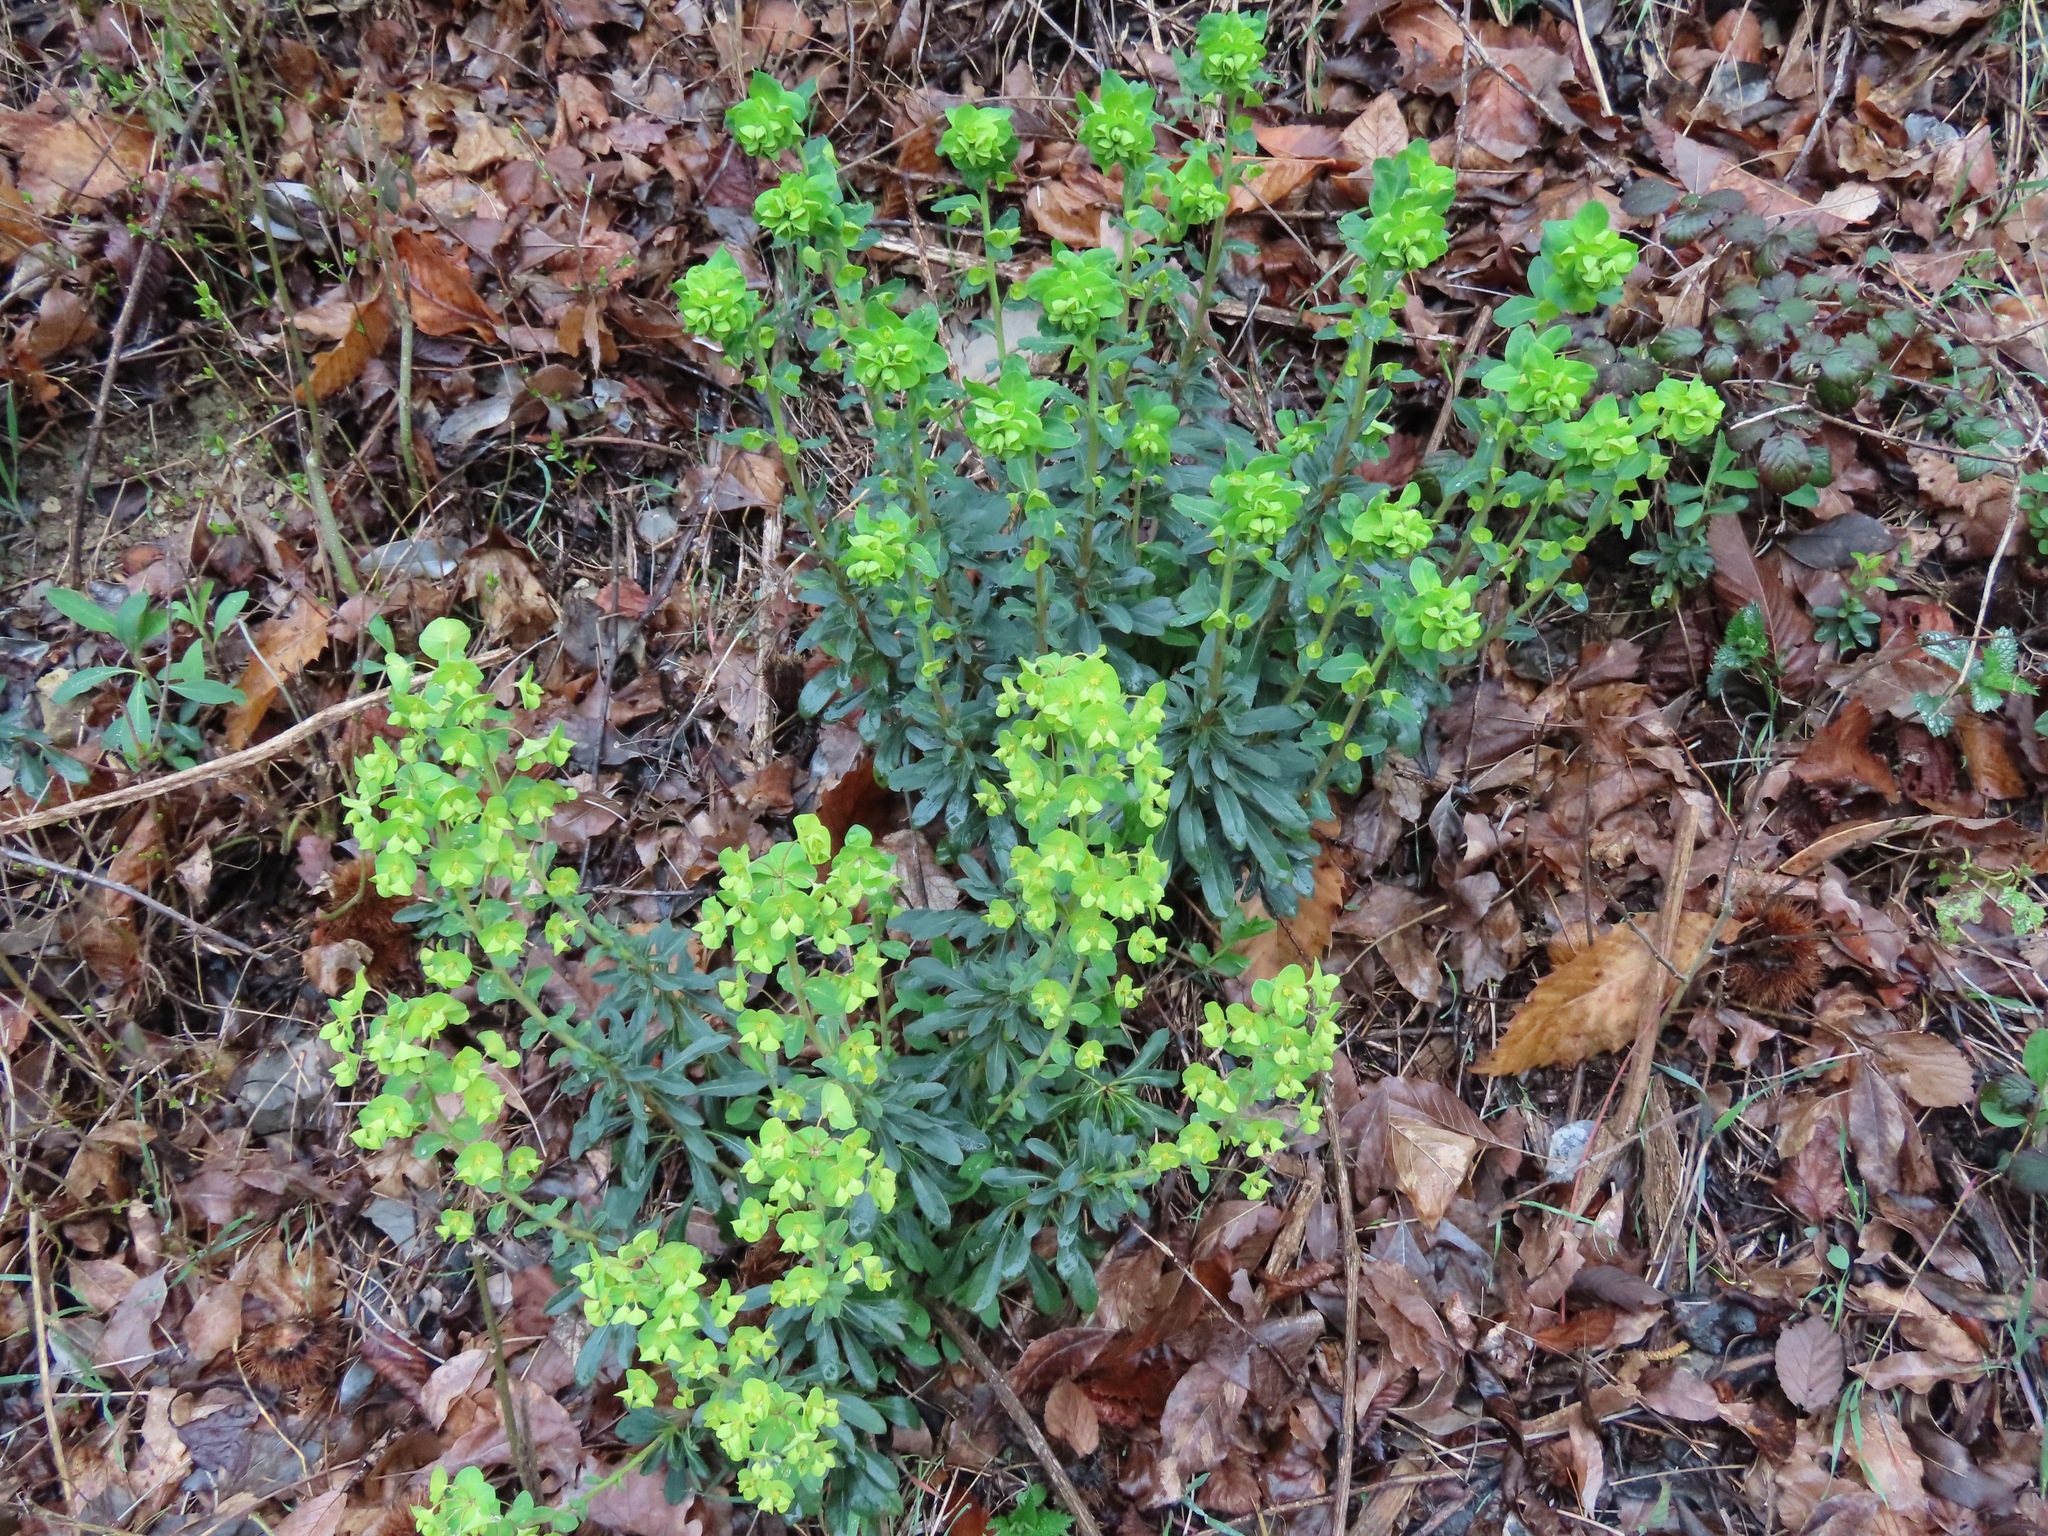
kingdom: Plantae
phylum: Tracheophyta
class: Magnoliopsida
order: Malpighiales
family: Euphorbiaceae
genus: Euphorbia
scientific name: Euphorbia amygdaloides
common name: Wood spurge
